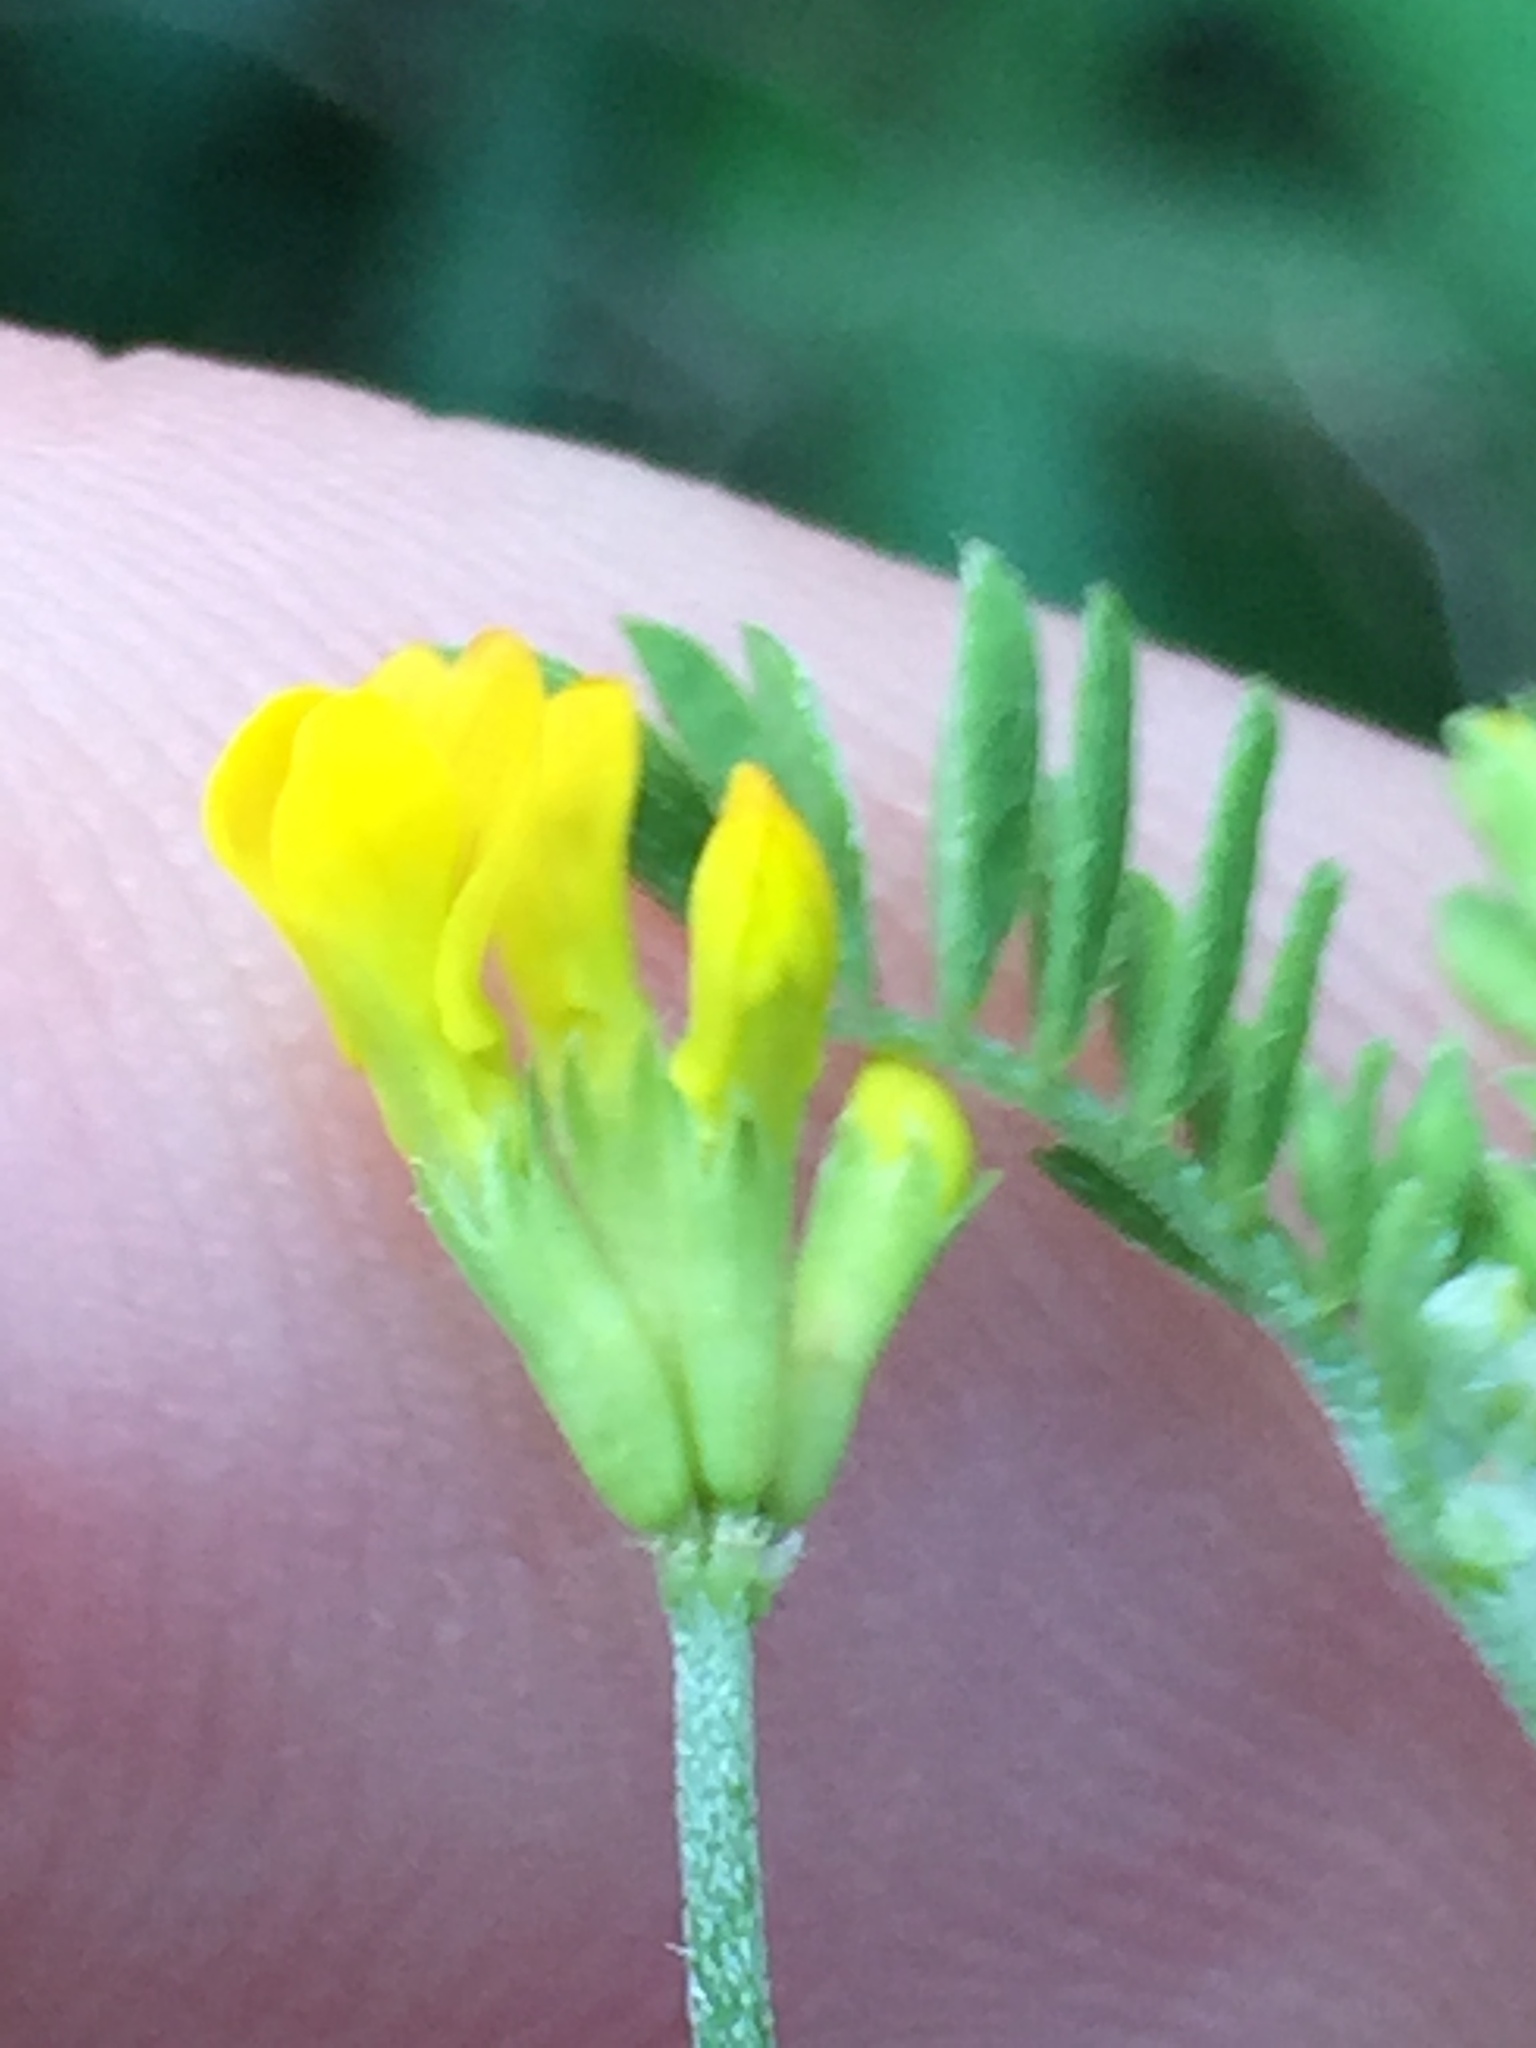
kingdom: Plantae
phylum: Tracheophyta
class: Magnoliopsida
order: Fabales
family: Fabaceae
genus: Ornithopus
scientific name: Ornithopus pinnatus
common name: Orange bird's-foot
